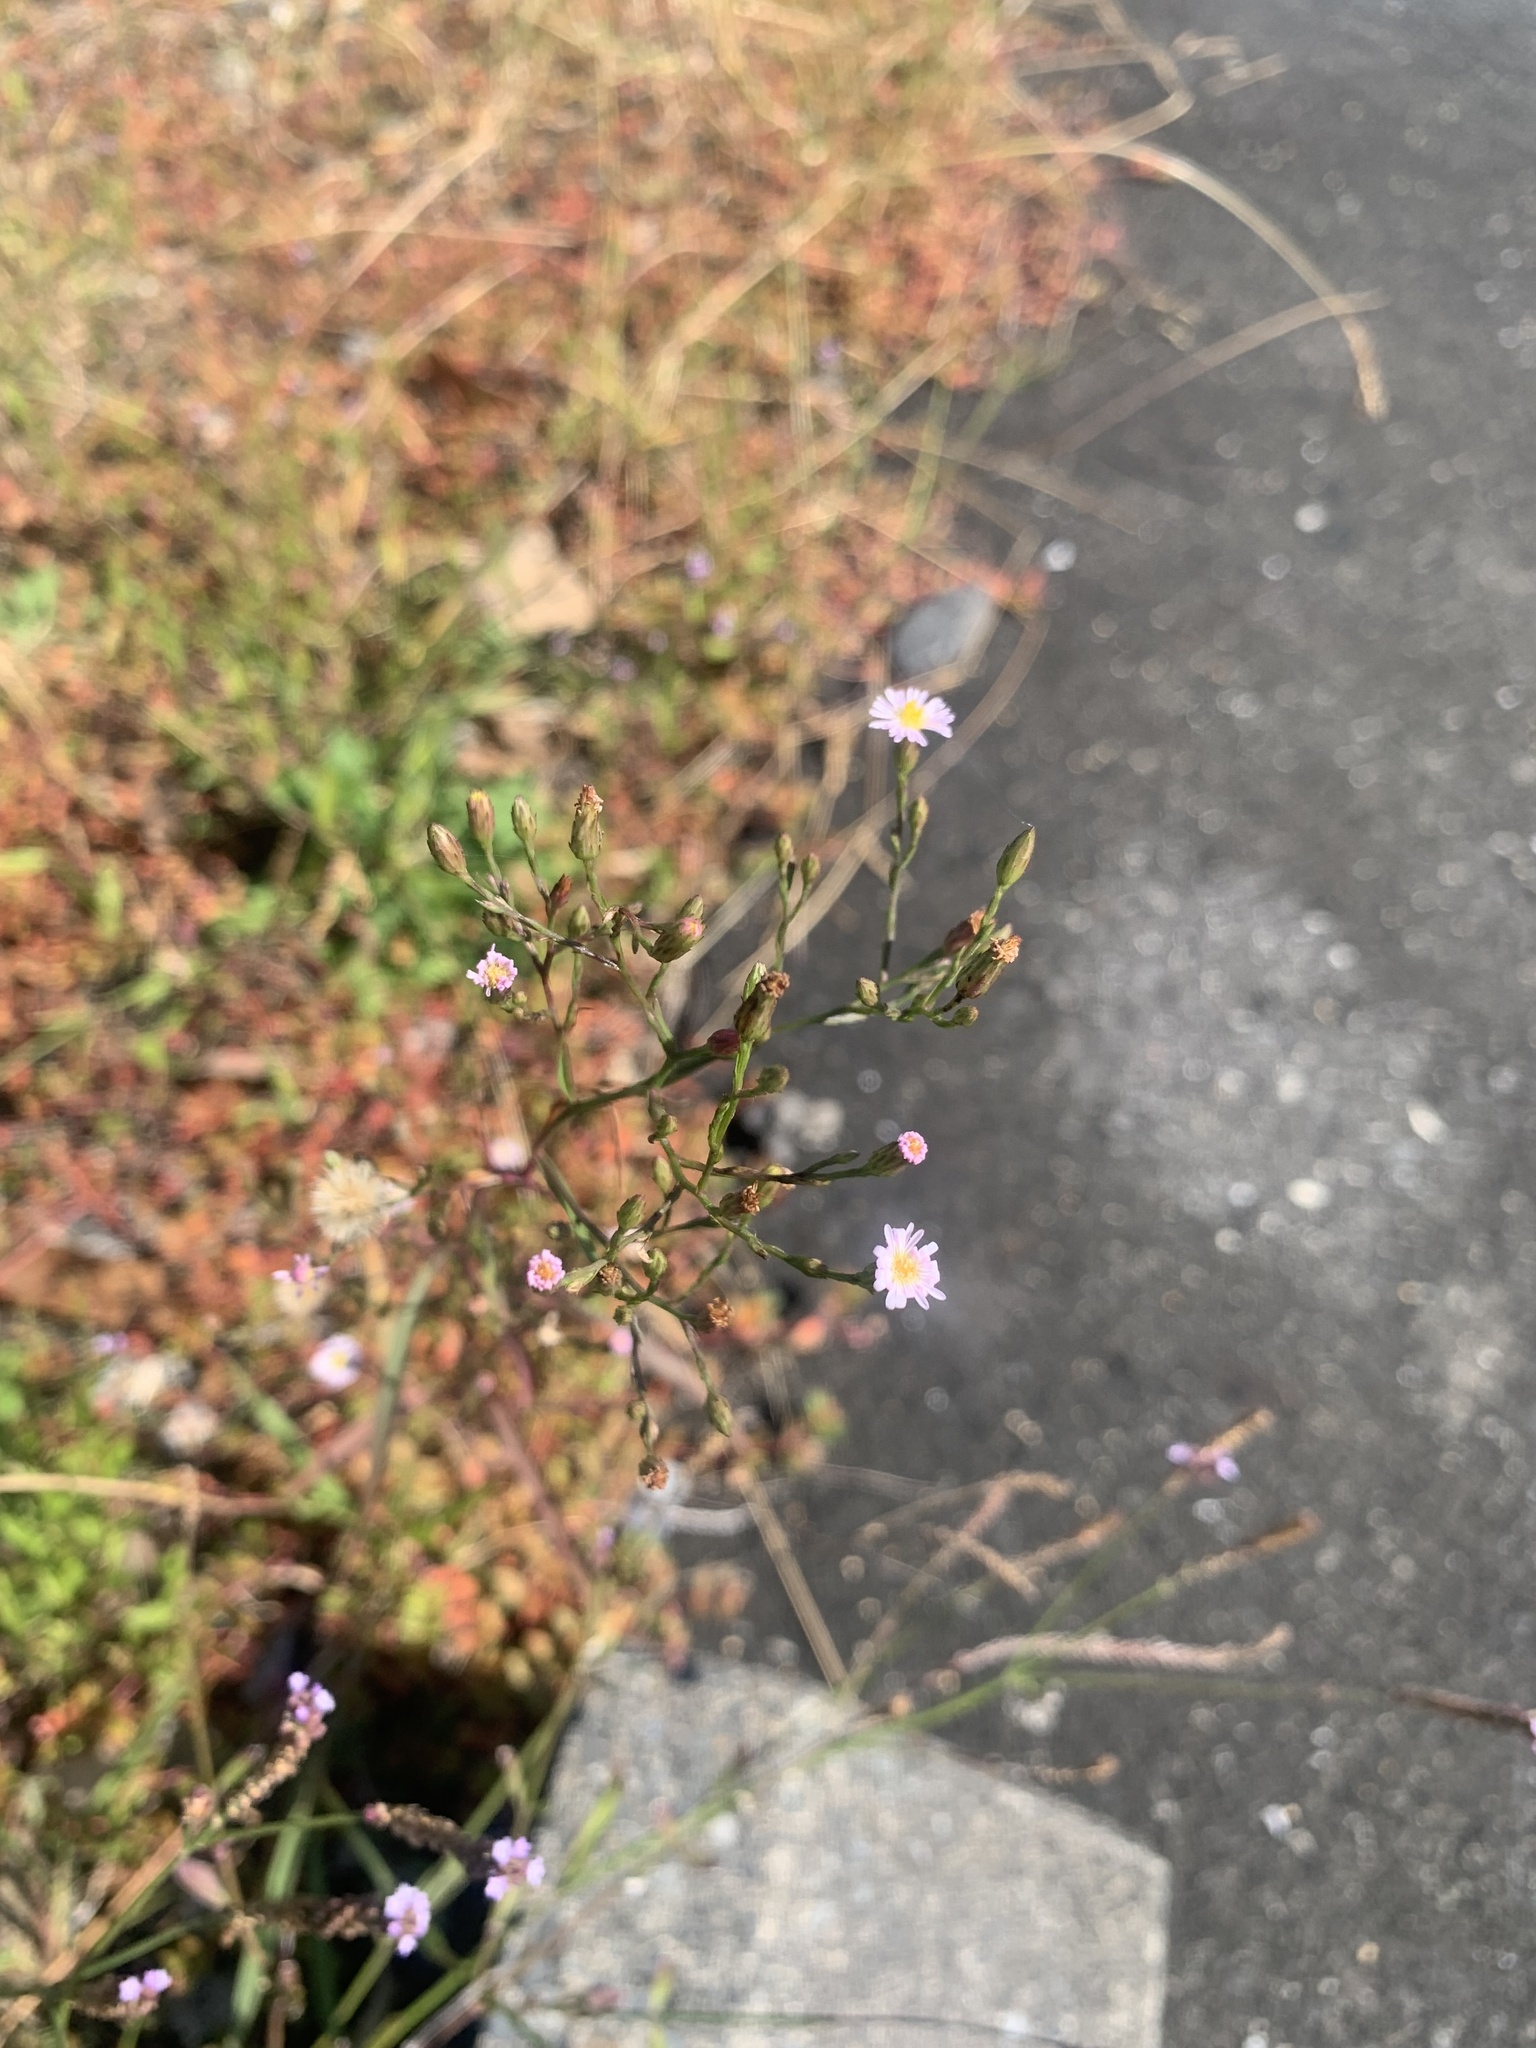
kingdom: Plantae
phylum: Tracheophyta
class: Magnoliopsida
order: Asterales
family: Asteraceae
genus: Symphyotrichum
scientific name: Symphyotrichum subulatum
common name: Annual saltmarsh aster
